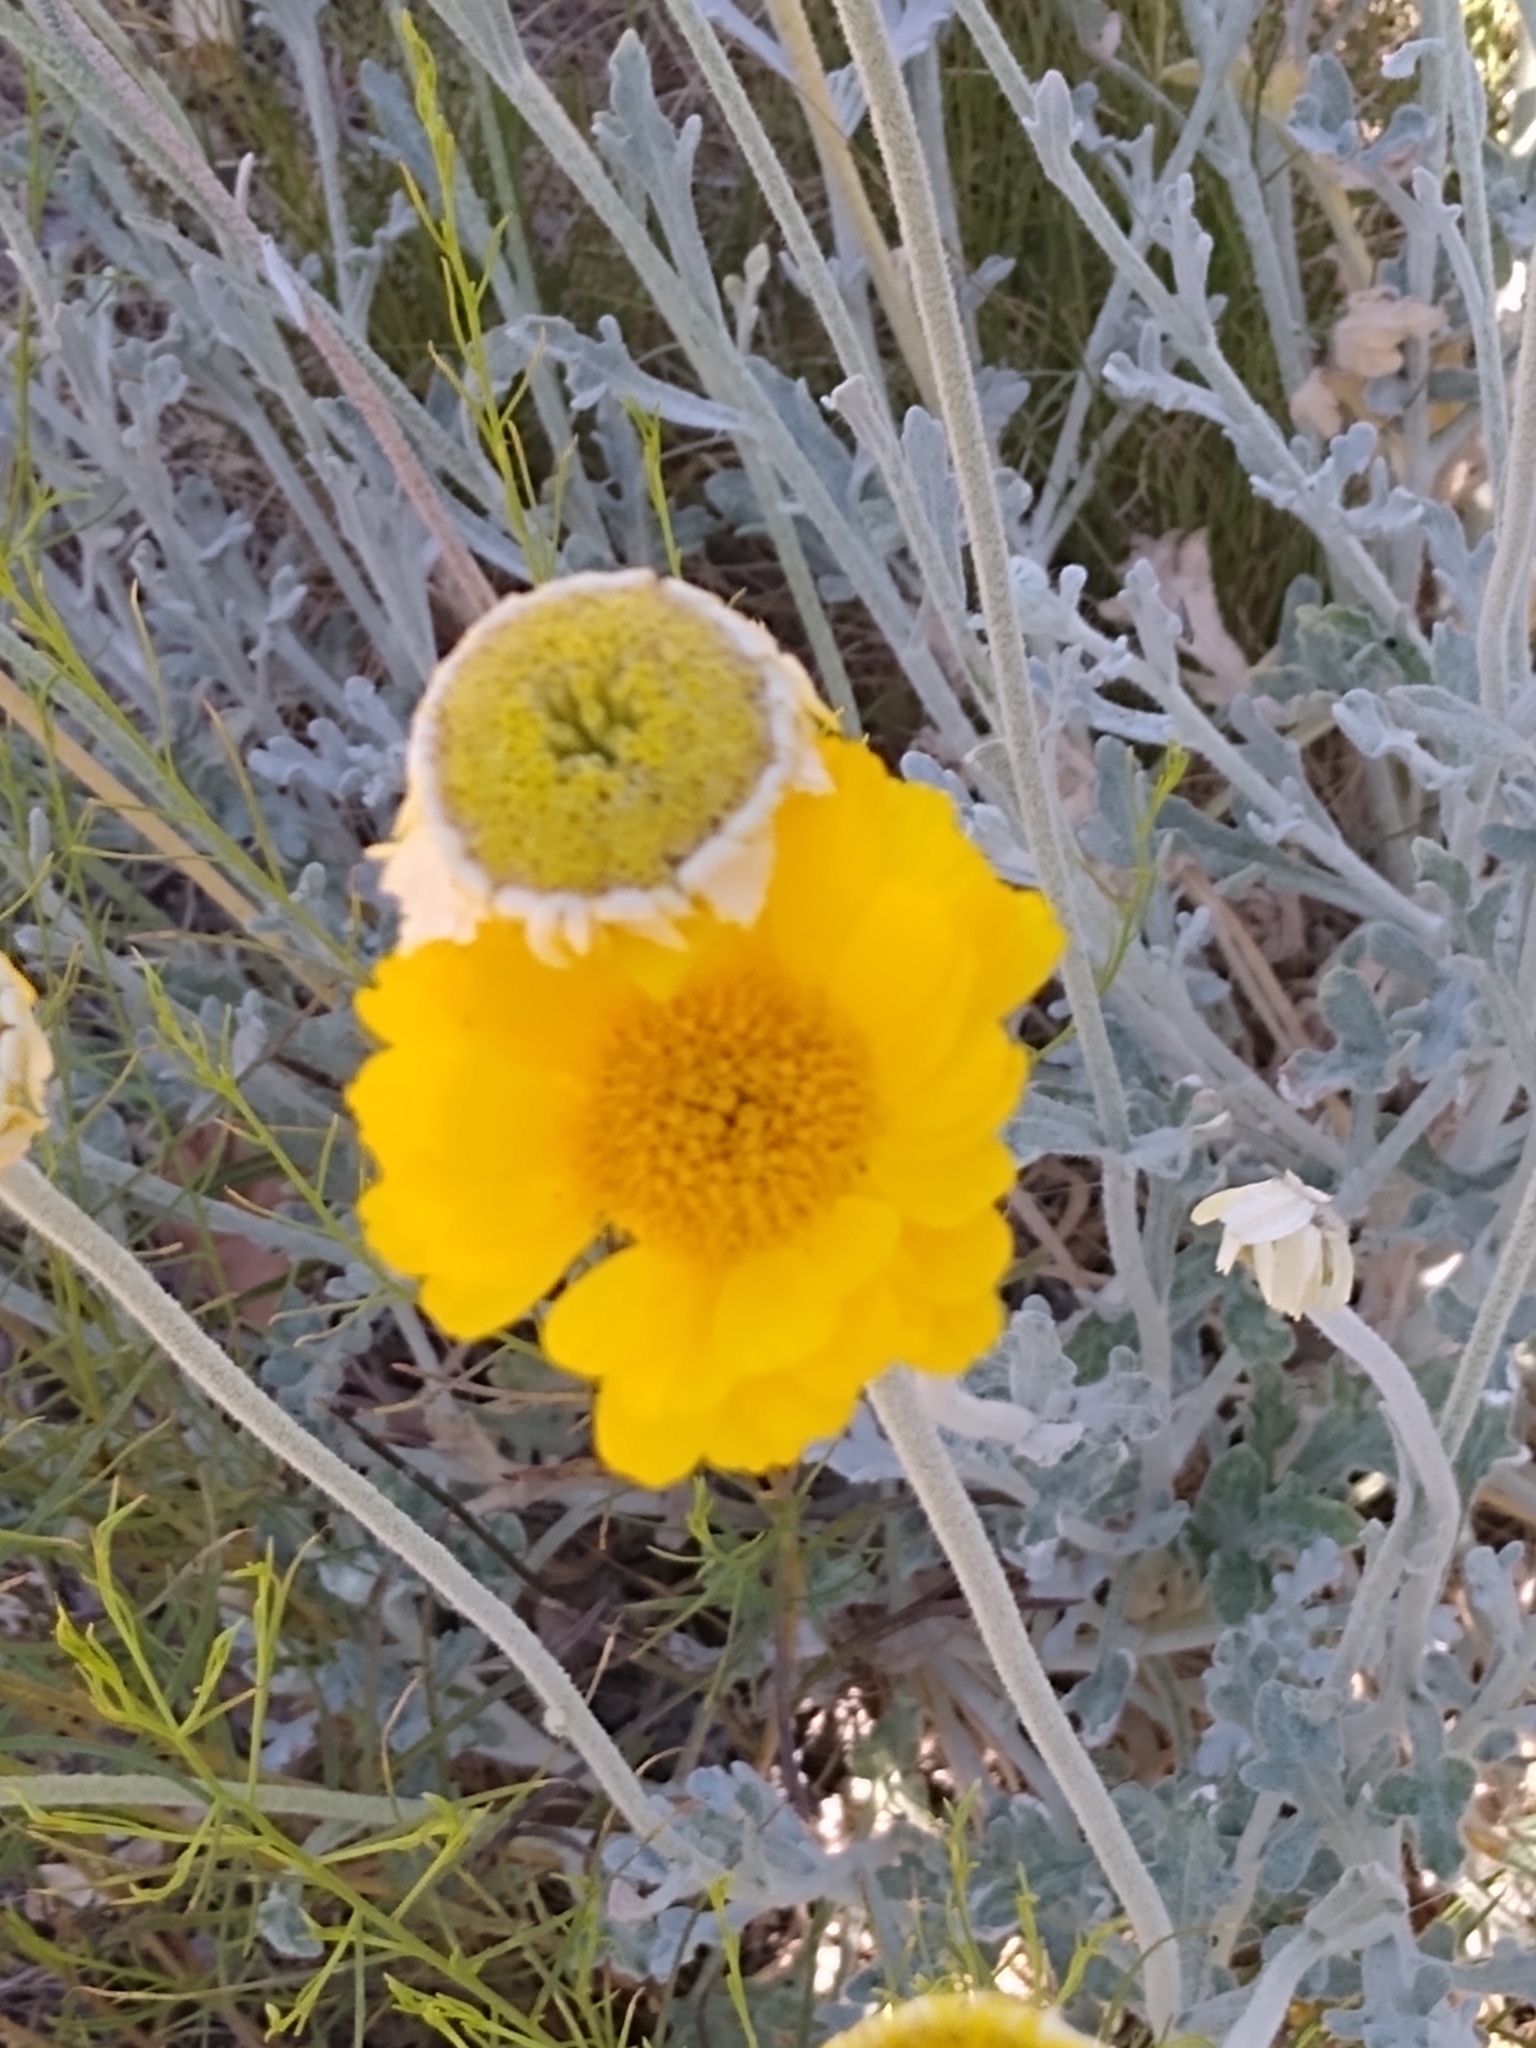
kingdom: Plantae
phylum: Tracheophyta
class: Magnoliopsida
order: Asterales
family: Asteraceae
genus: Baileya
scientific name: Baileya multiradiata
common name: Desert-marigold
